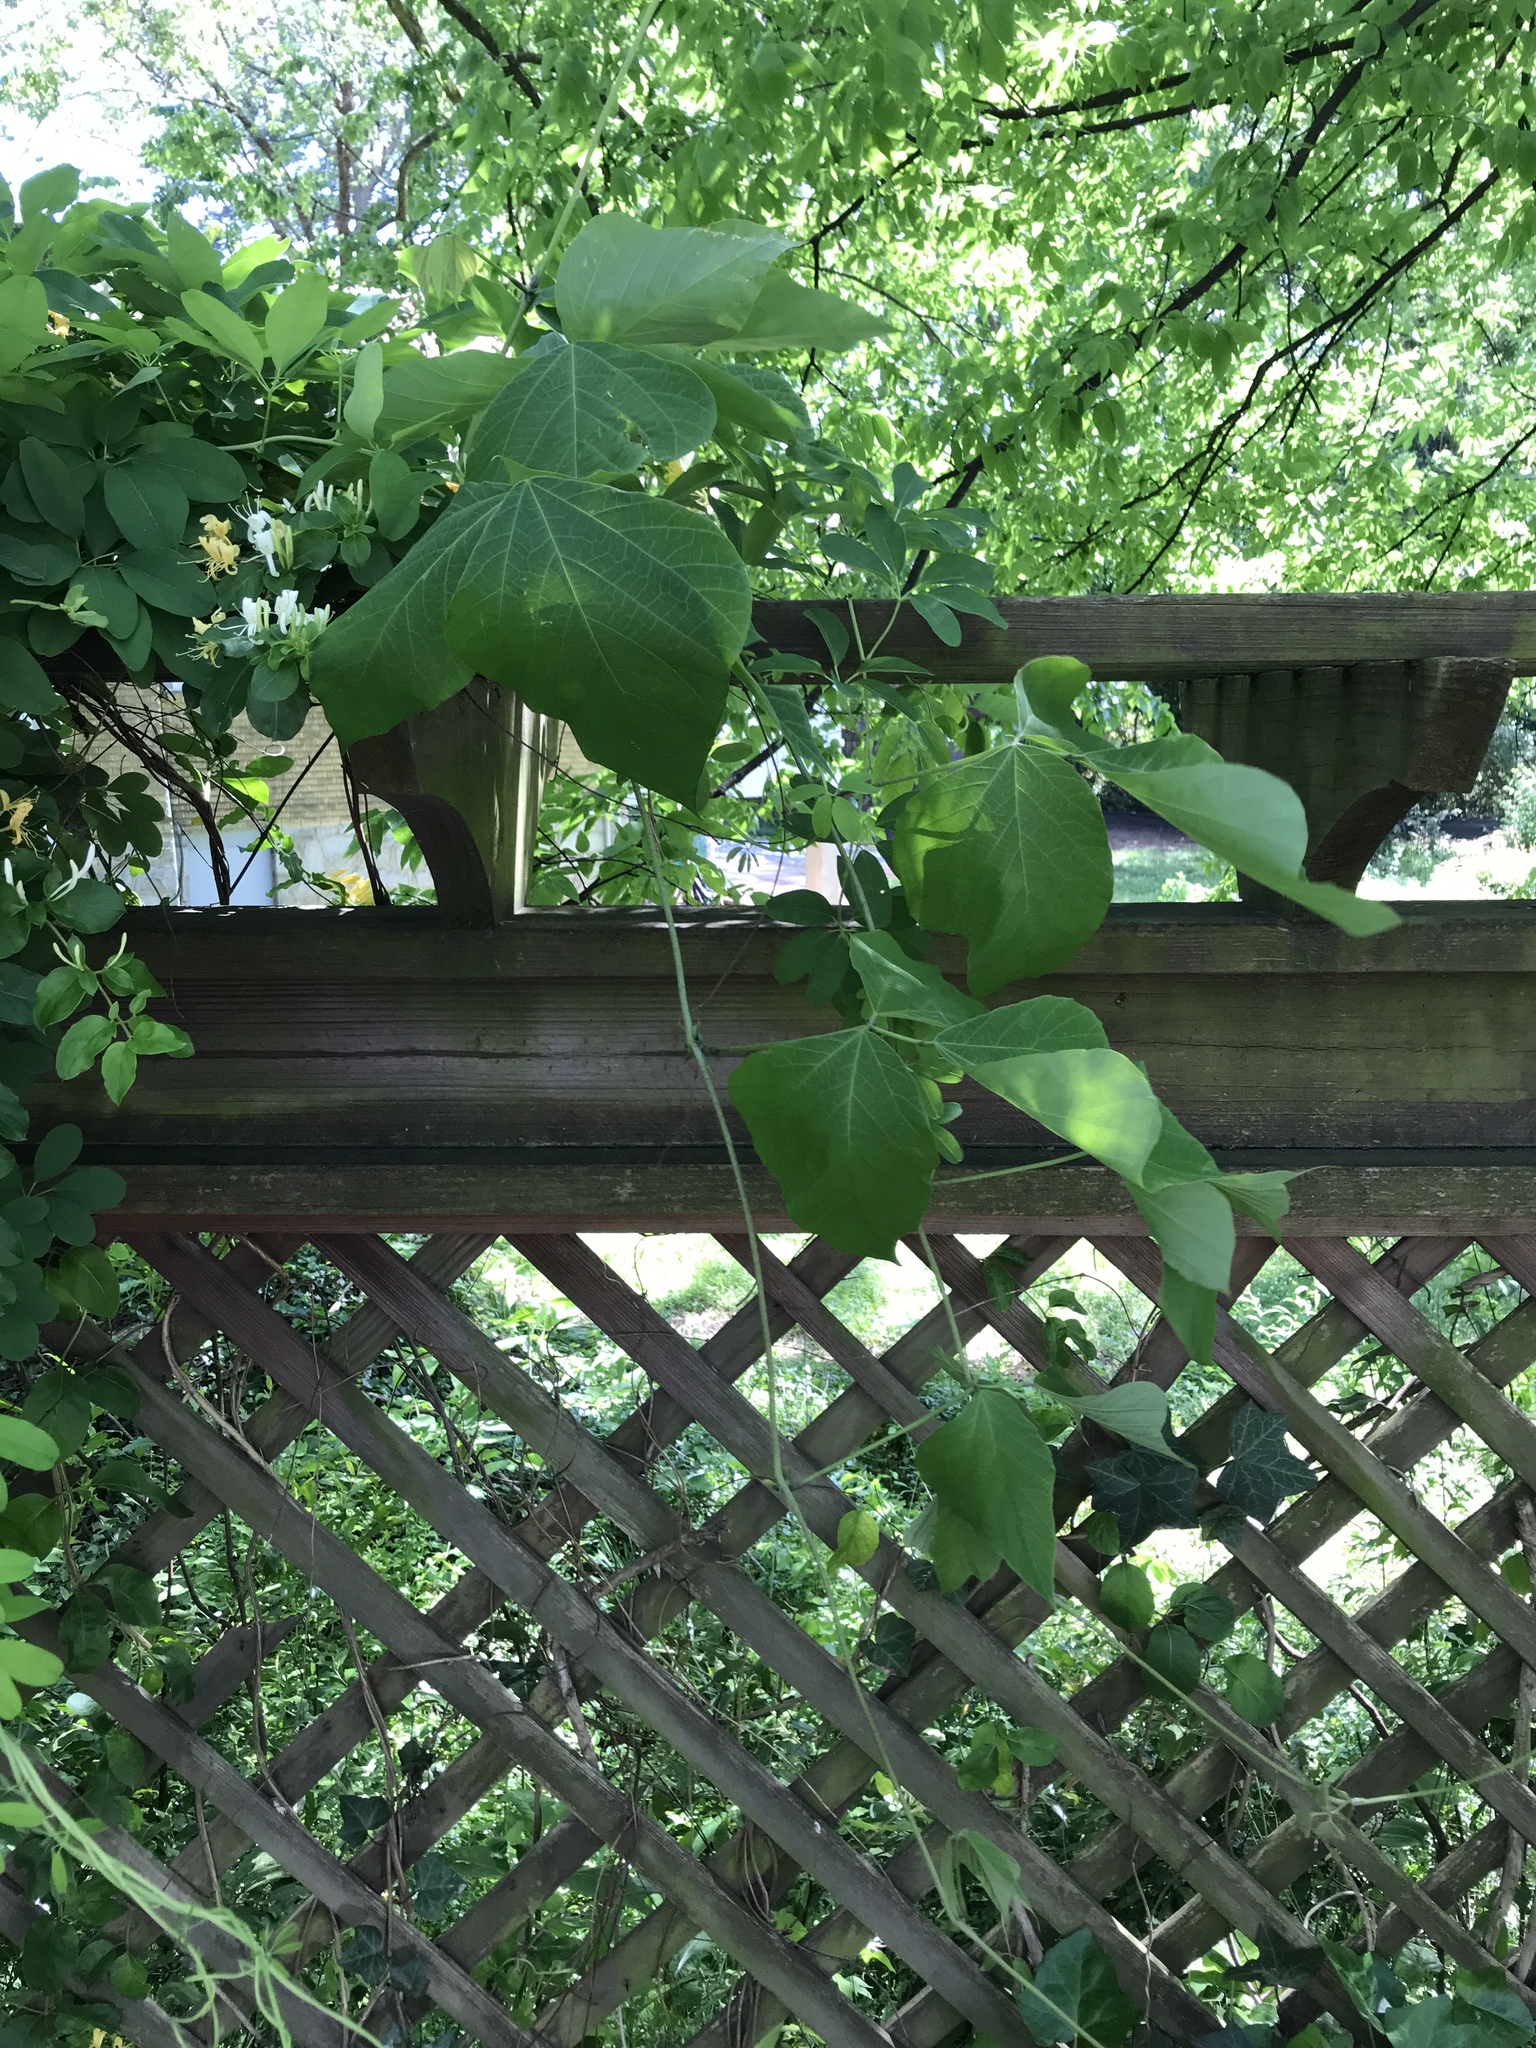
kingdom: Plantae
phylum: Tracheophyta
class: Magnoliopsida
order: Fabales
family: Fabaceae
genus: Pueraria
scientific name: Pueraria montana
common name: Kudzu
